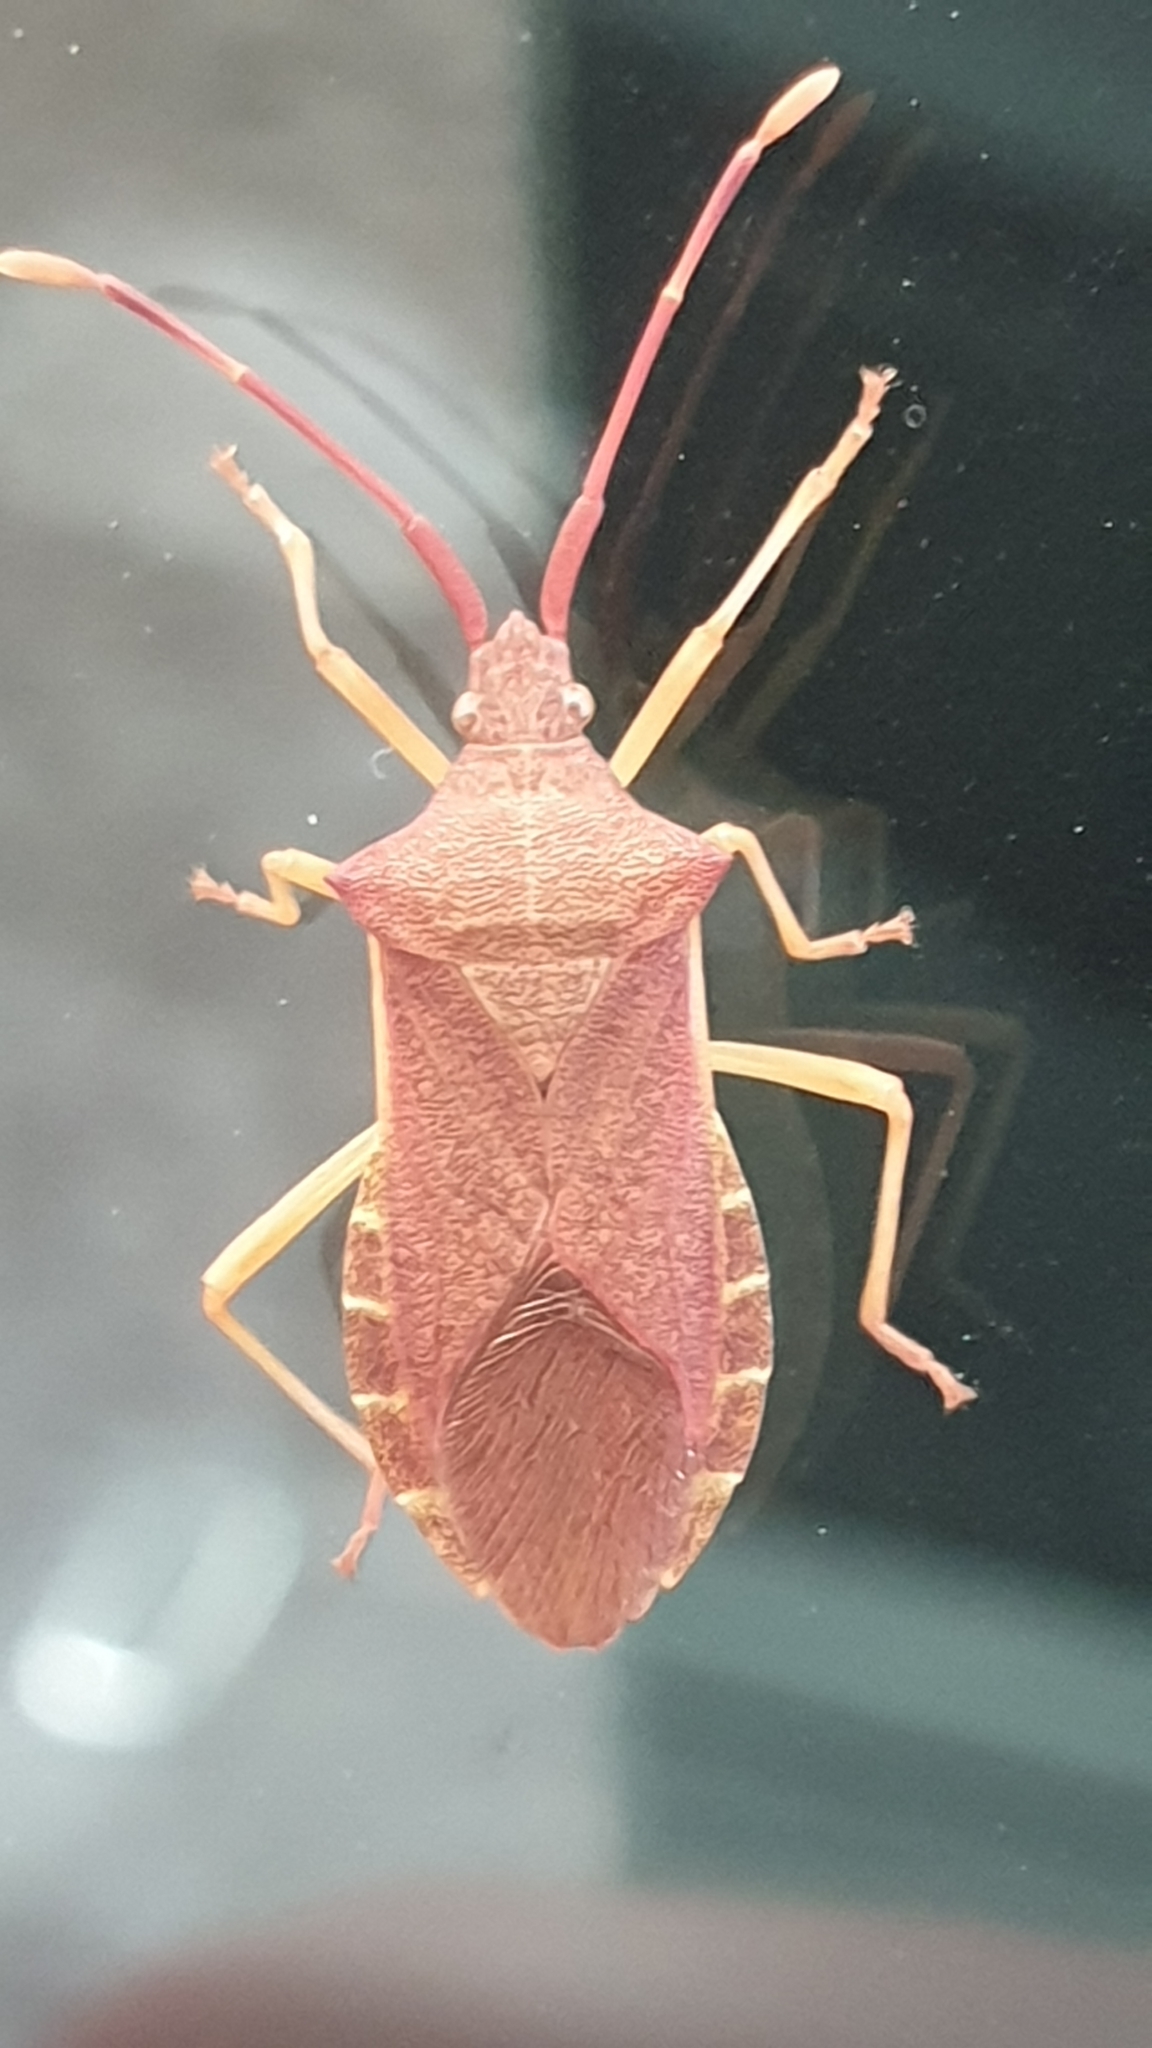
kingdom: Animalia
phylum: Arthropoda
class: Insecta
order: Hemiptera
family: Coreidae
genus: Gonocerus
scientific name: Gonocerus acuteangulatus
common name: Box bug
